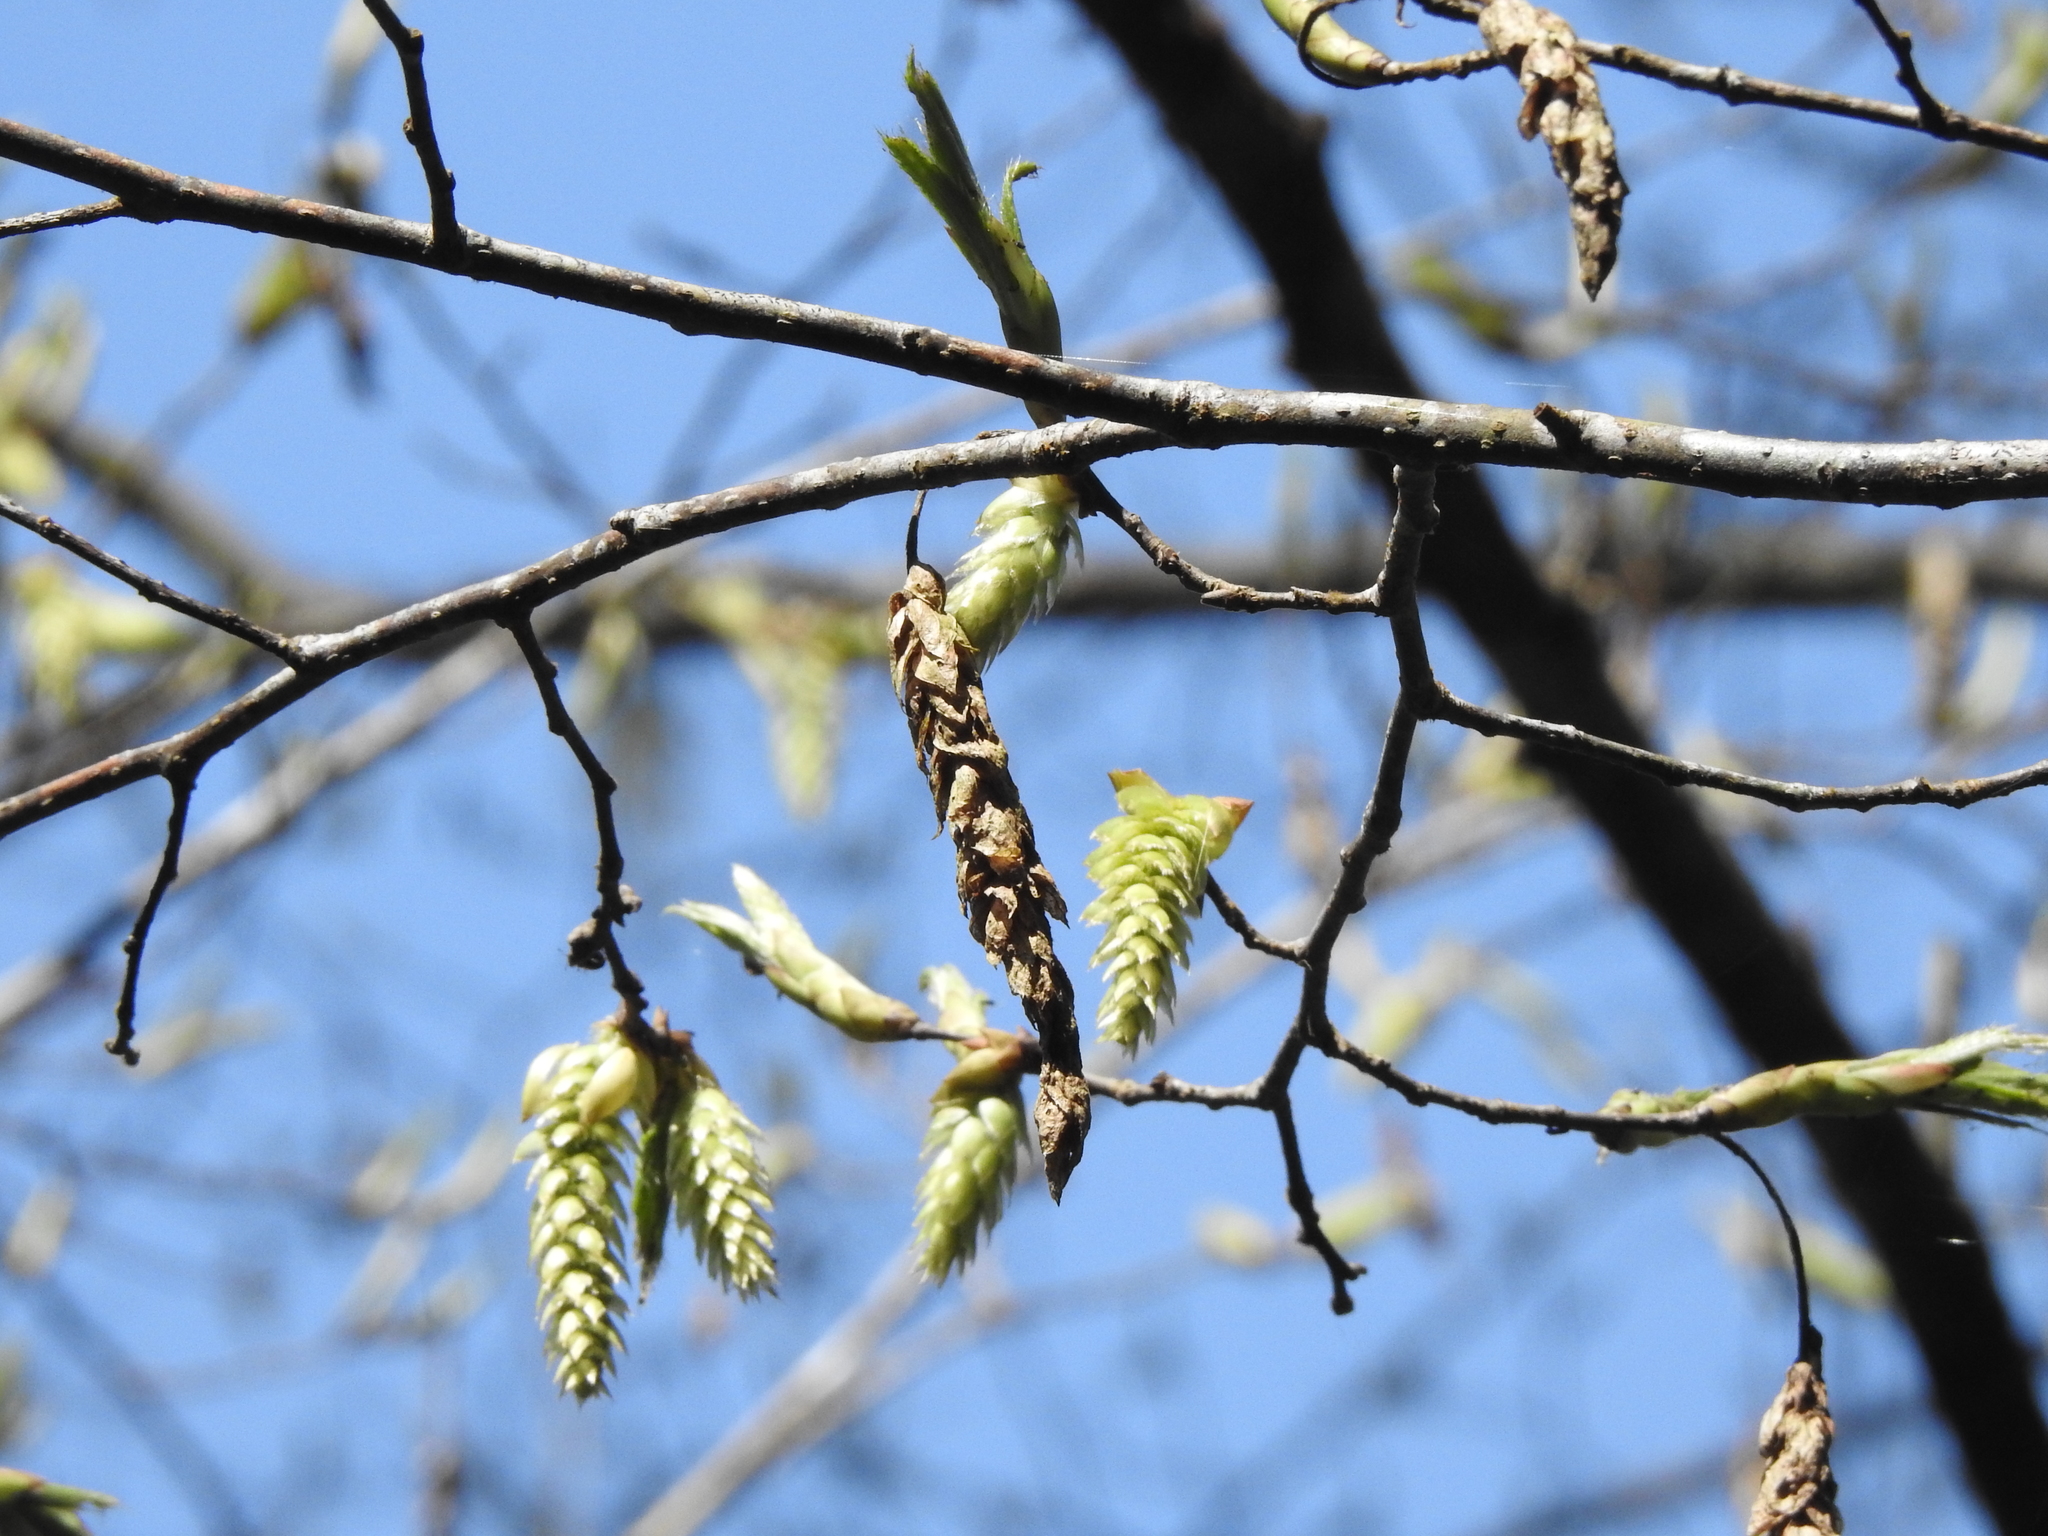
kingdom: Plantae
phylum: Tracheophyta
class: Magnoliopsida
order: Fagales
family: Betulaceae
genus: Carpinus
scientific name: Carpinus rankanensis
